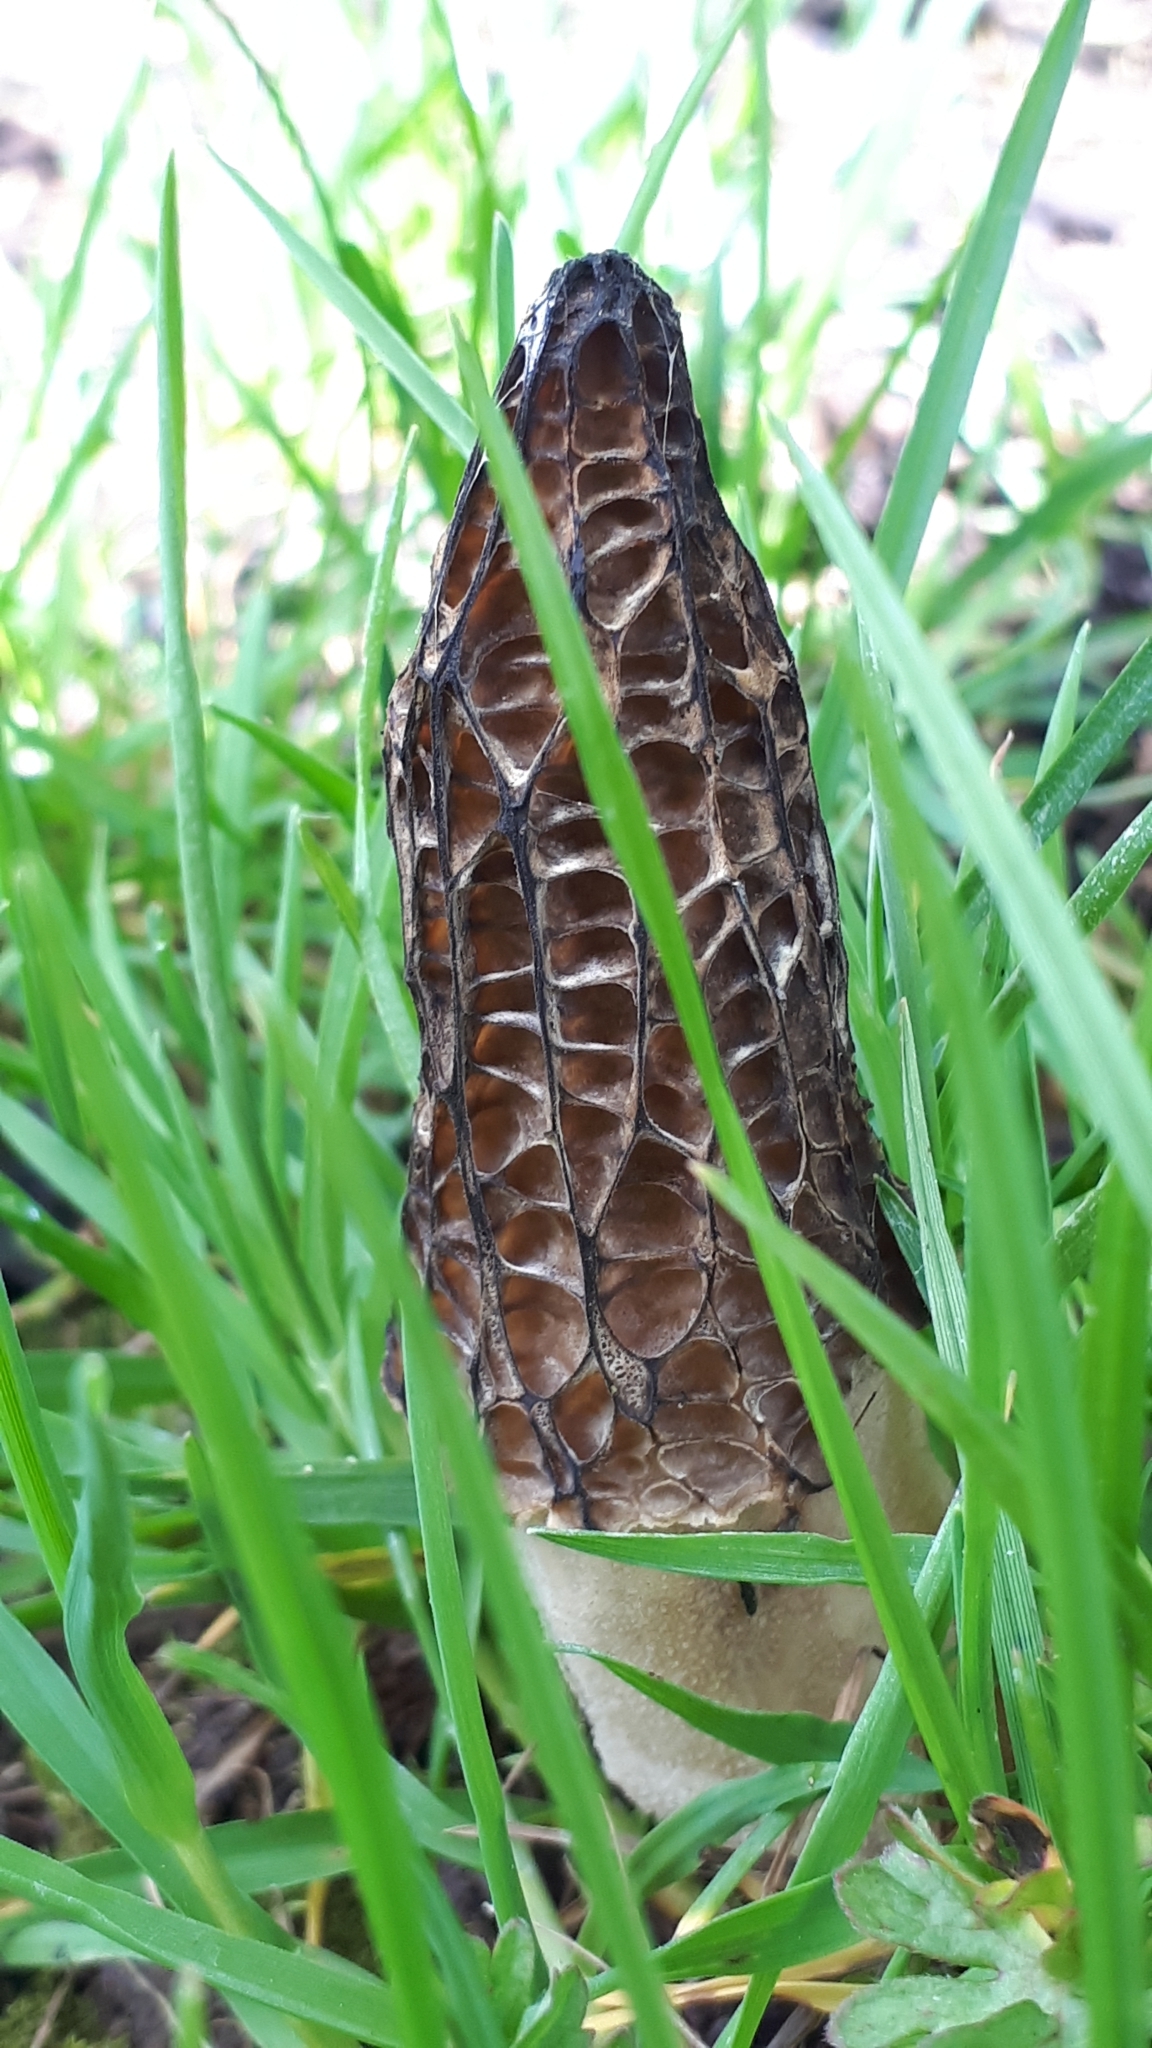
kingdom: Fungi
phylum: Ascomycota
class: Pezizomycetes
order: Pezizales
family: Morchellaceae
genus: Morchella
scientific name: Morchella importuna
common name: Landscaping black morel
